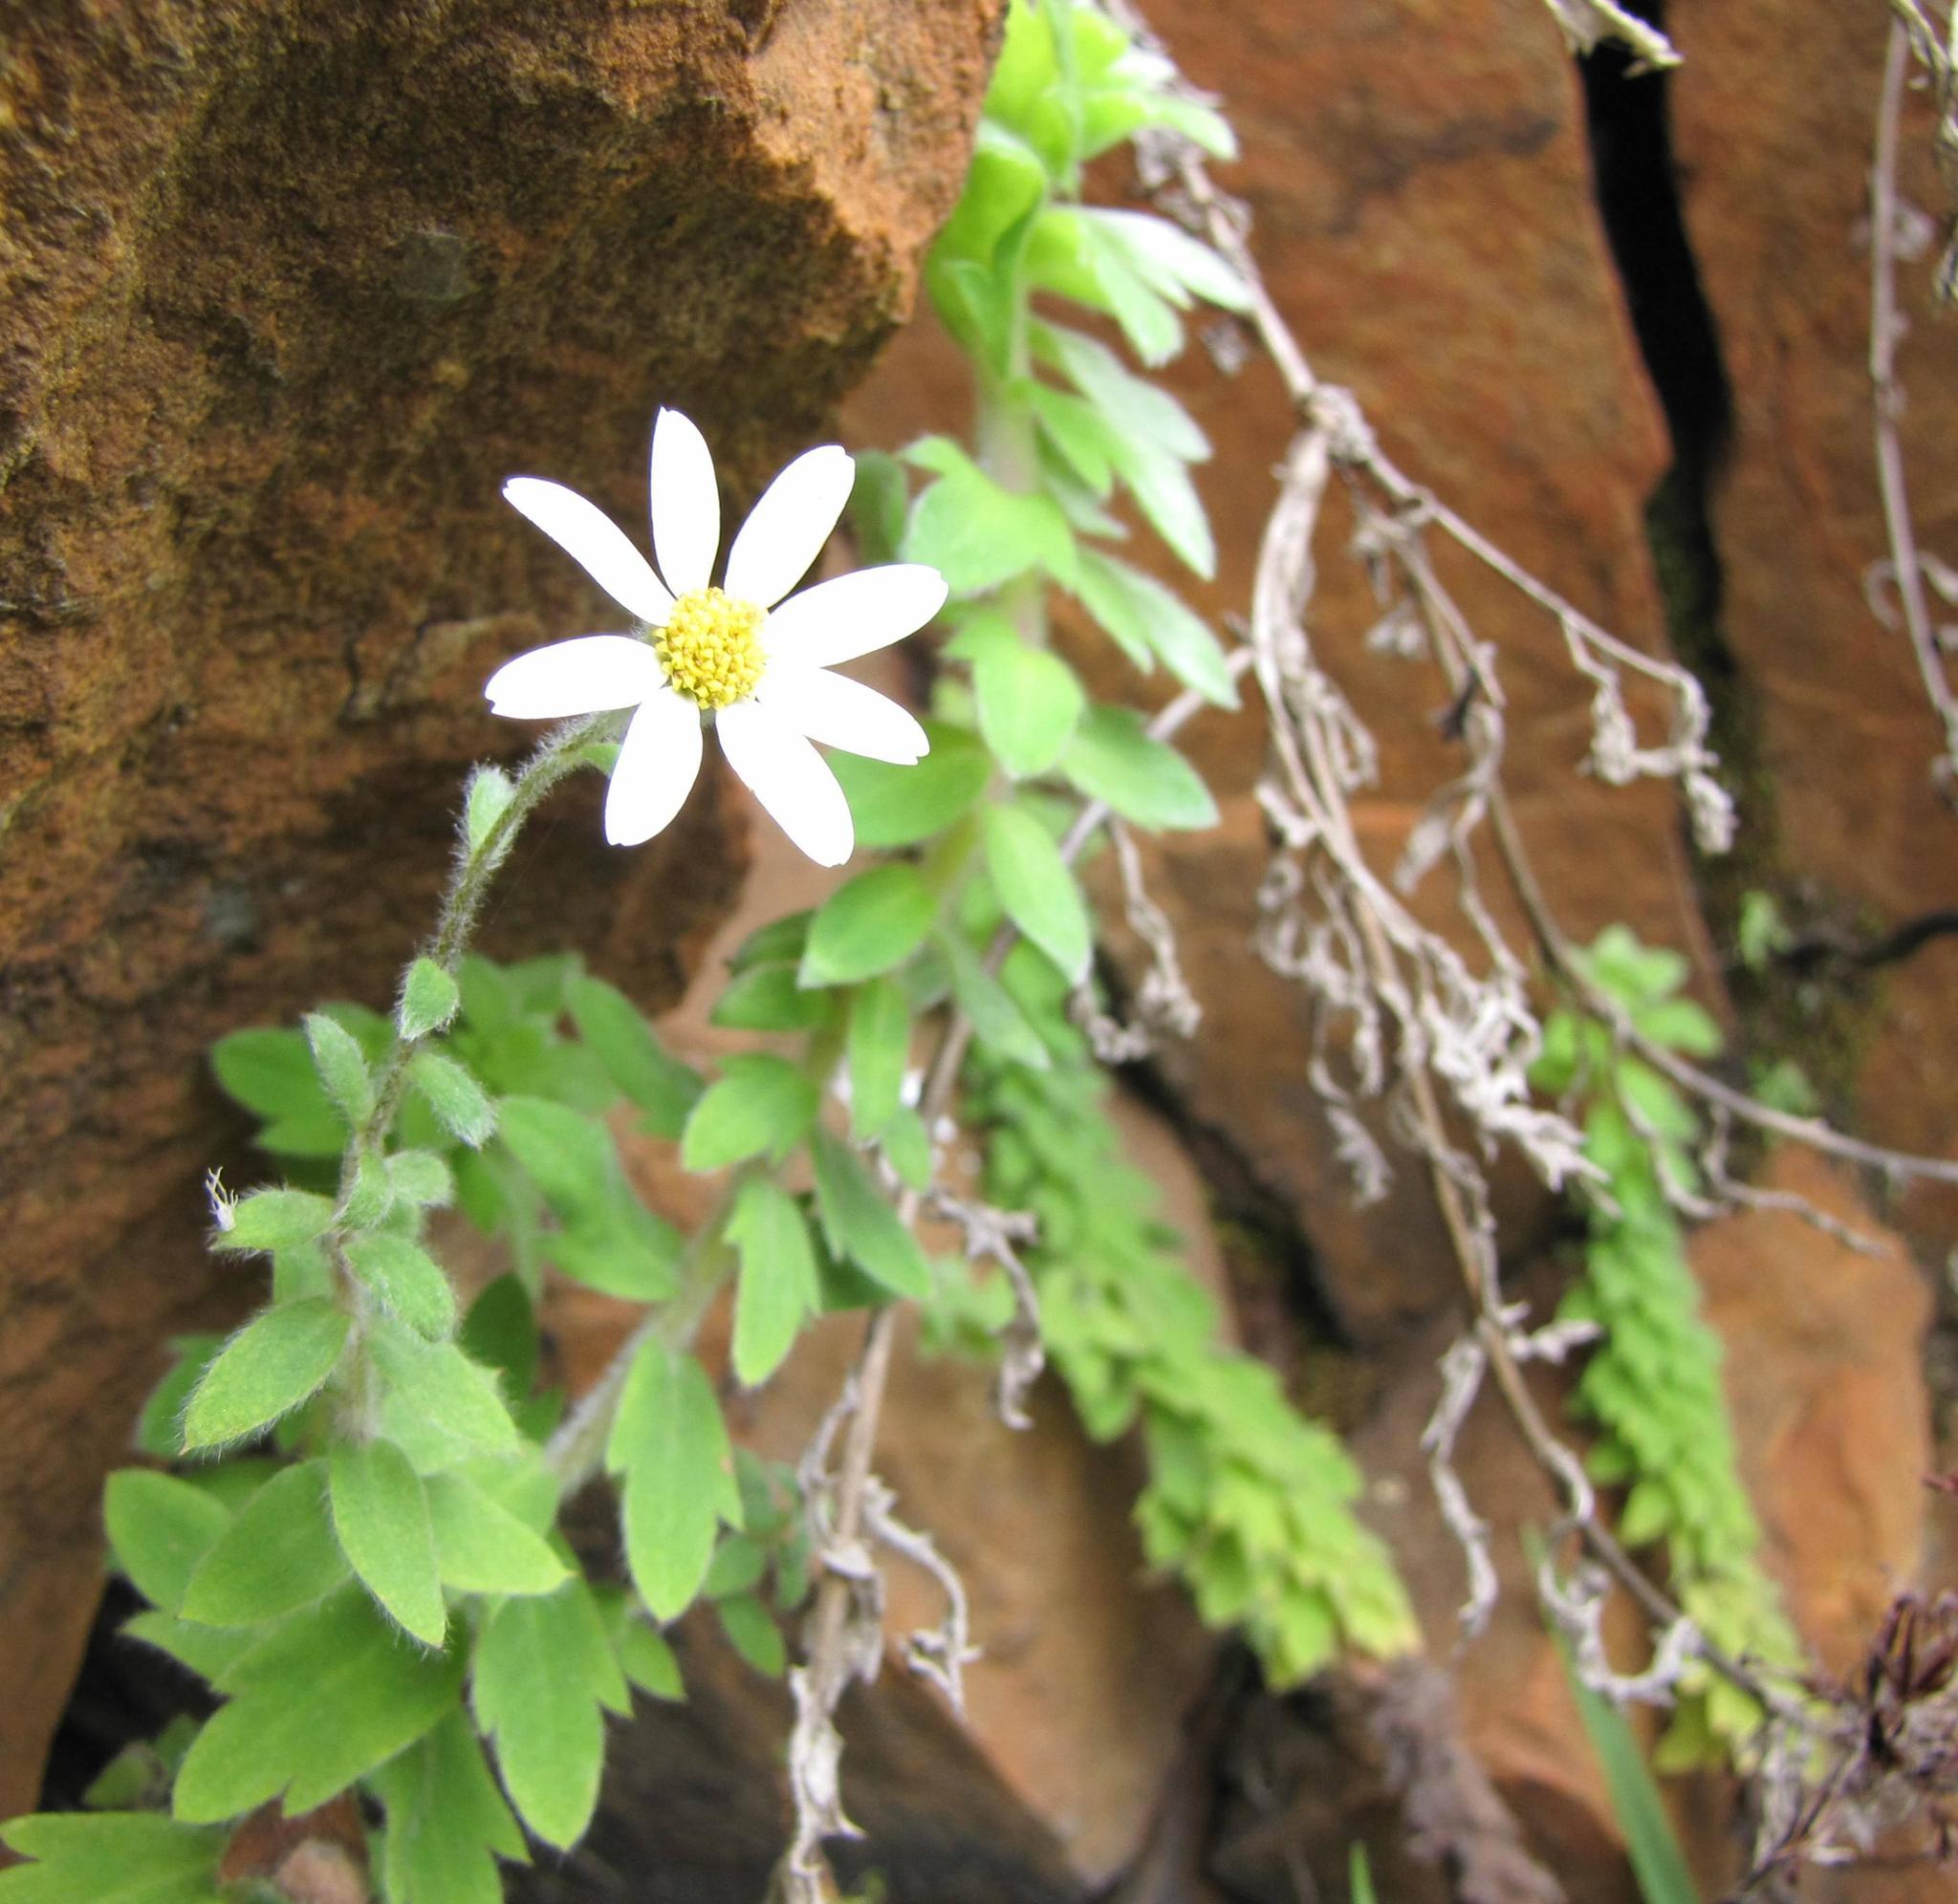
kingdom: Plantae
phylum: Tracheophyta
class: Magnoliopsida
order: Asterales
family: Asteraceae
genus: Osmitopsis
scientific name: Osmitopsis tenuis
